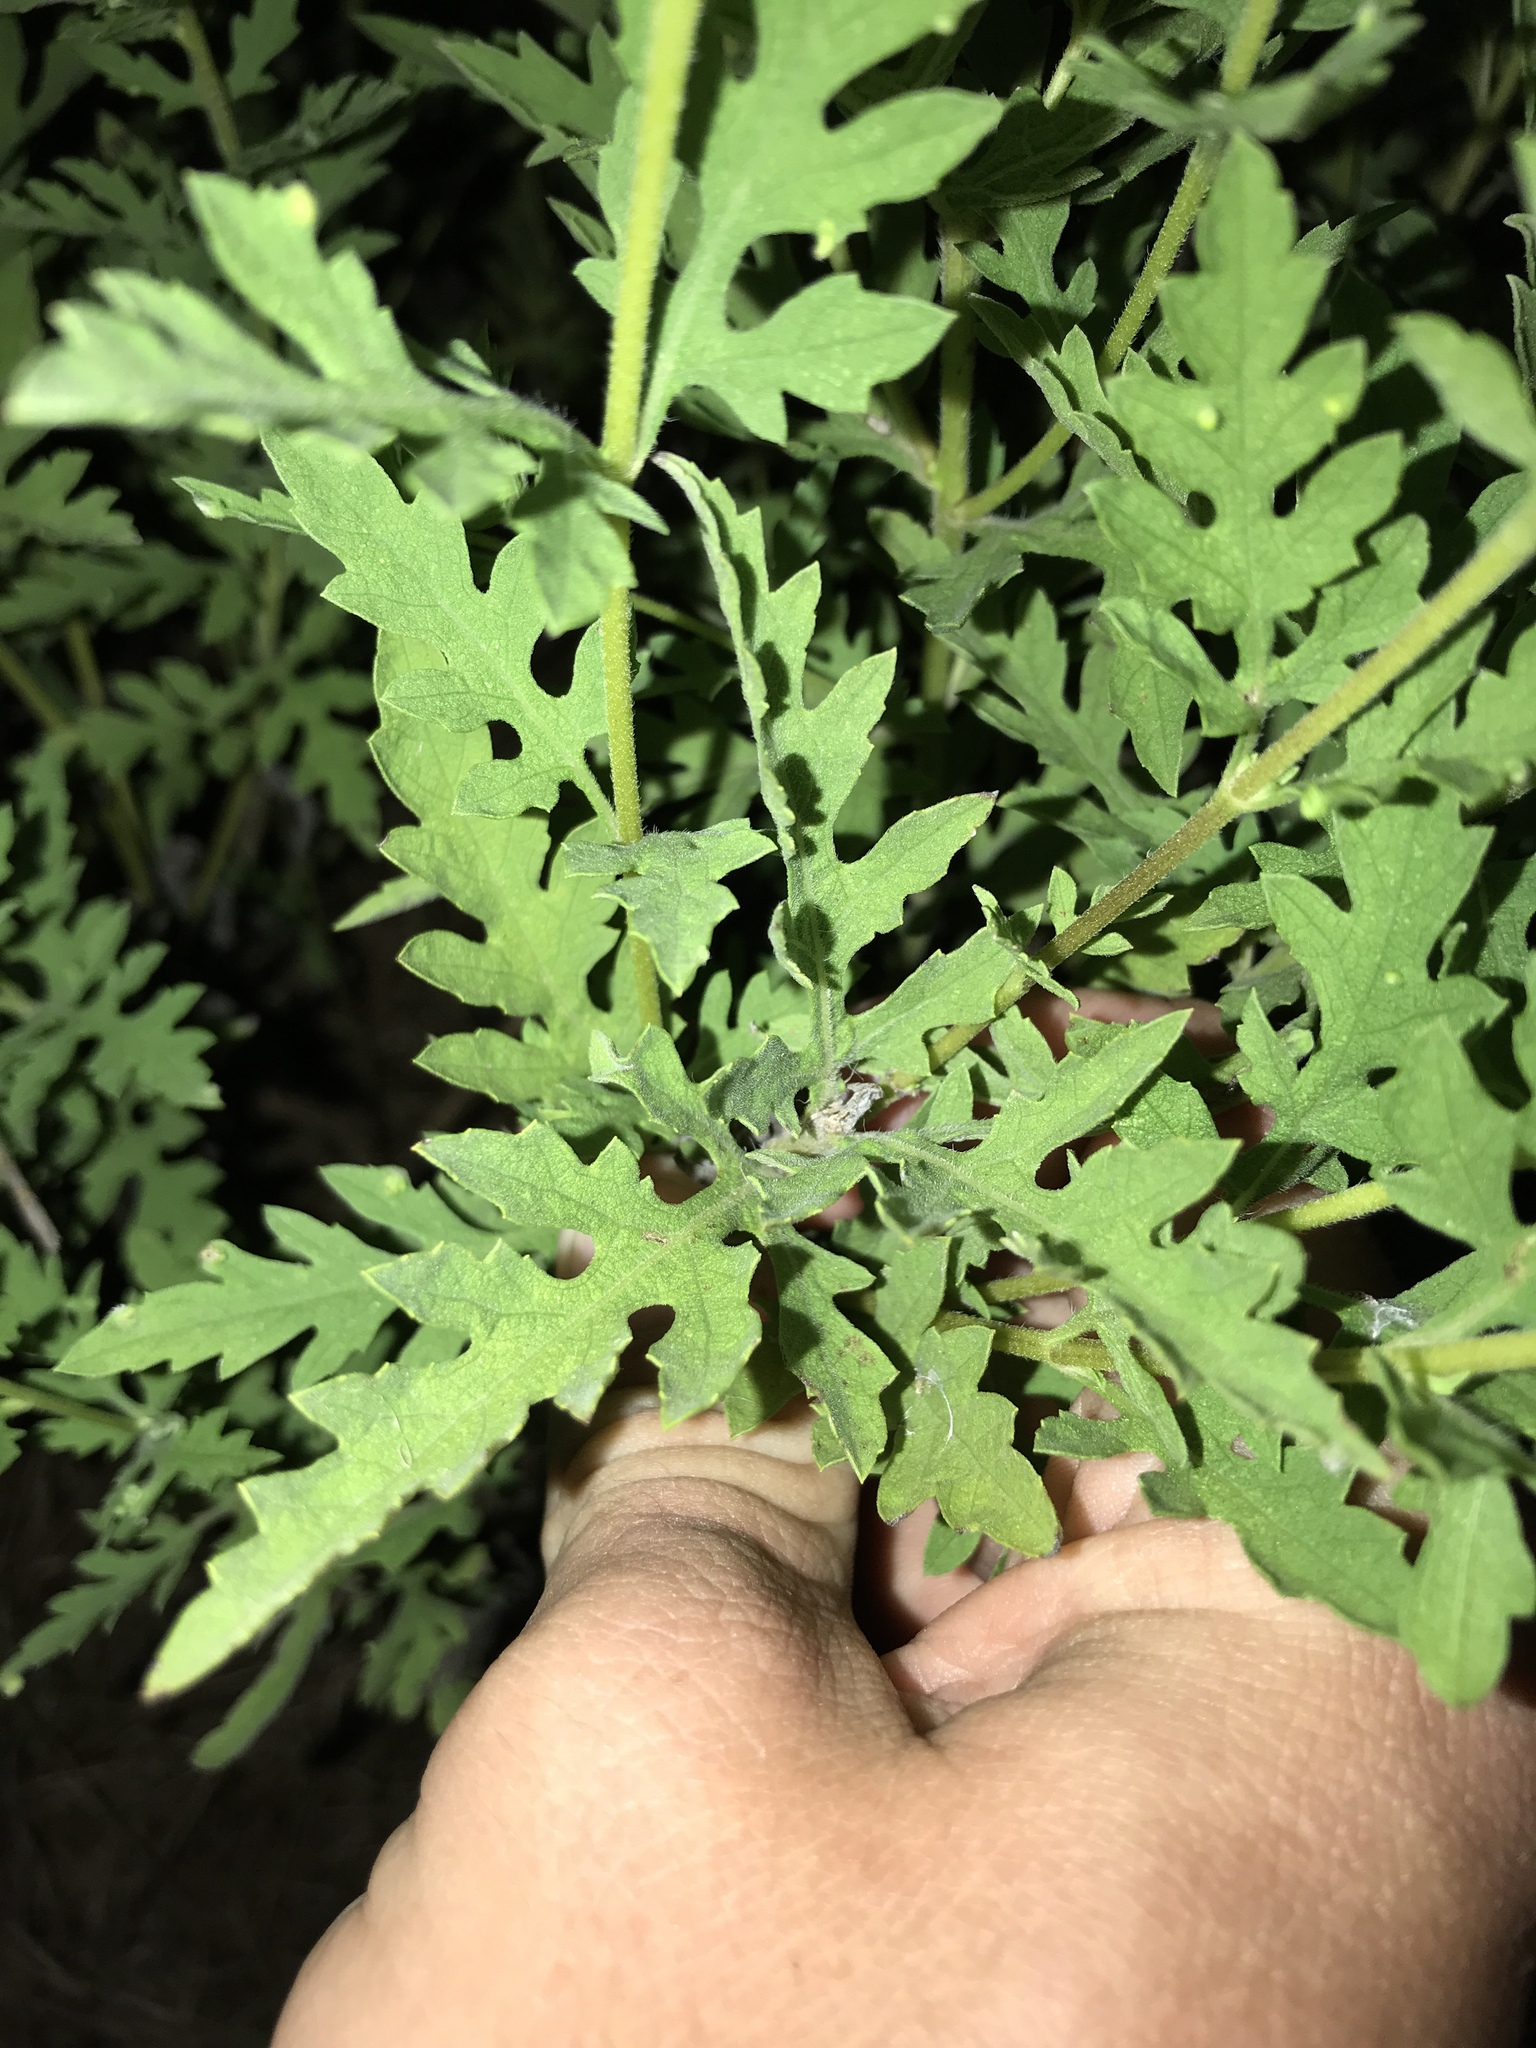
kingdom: Plantae
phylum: Tracheophyta
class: Magnoliopsida
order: Asterales
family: Asteraceae
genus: Ambrosia
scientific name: Ambrosia psilostachya
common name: Perennial ragweed
